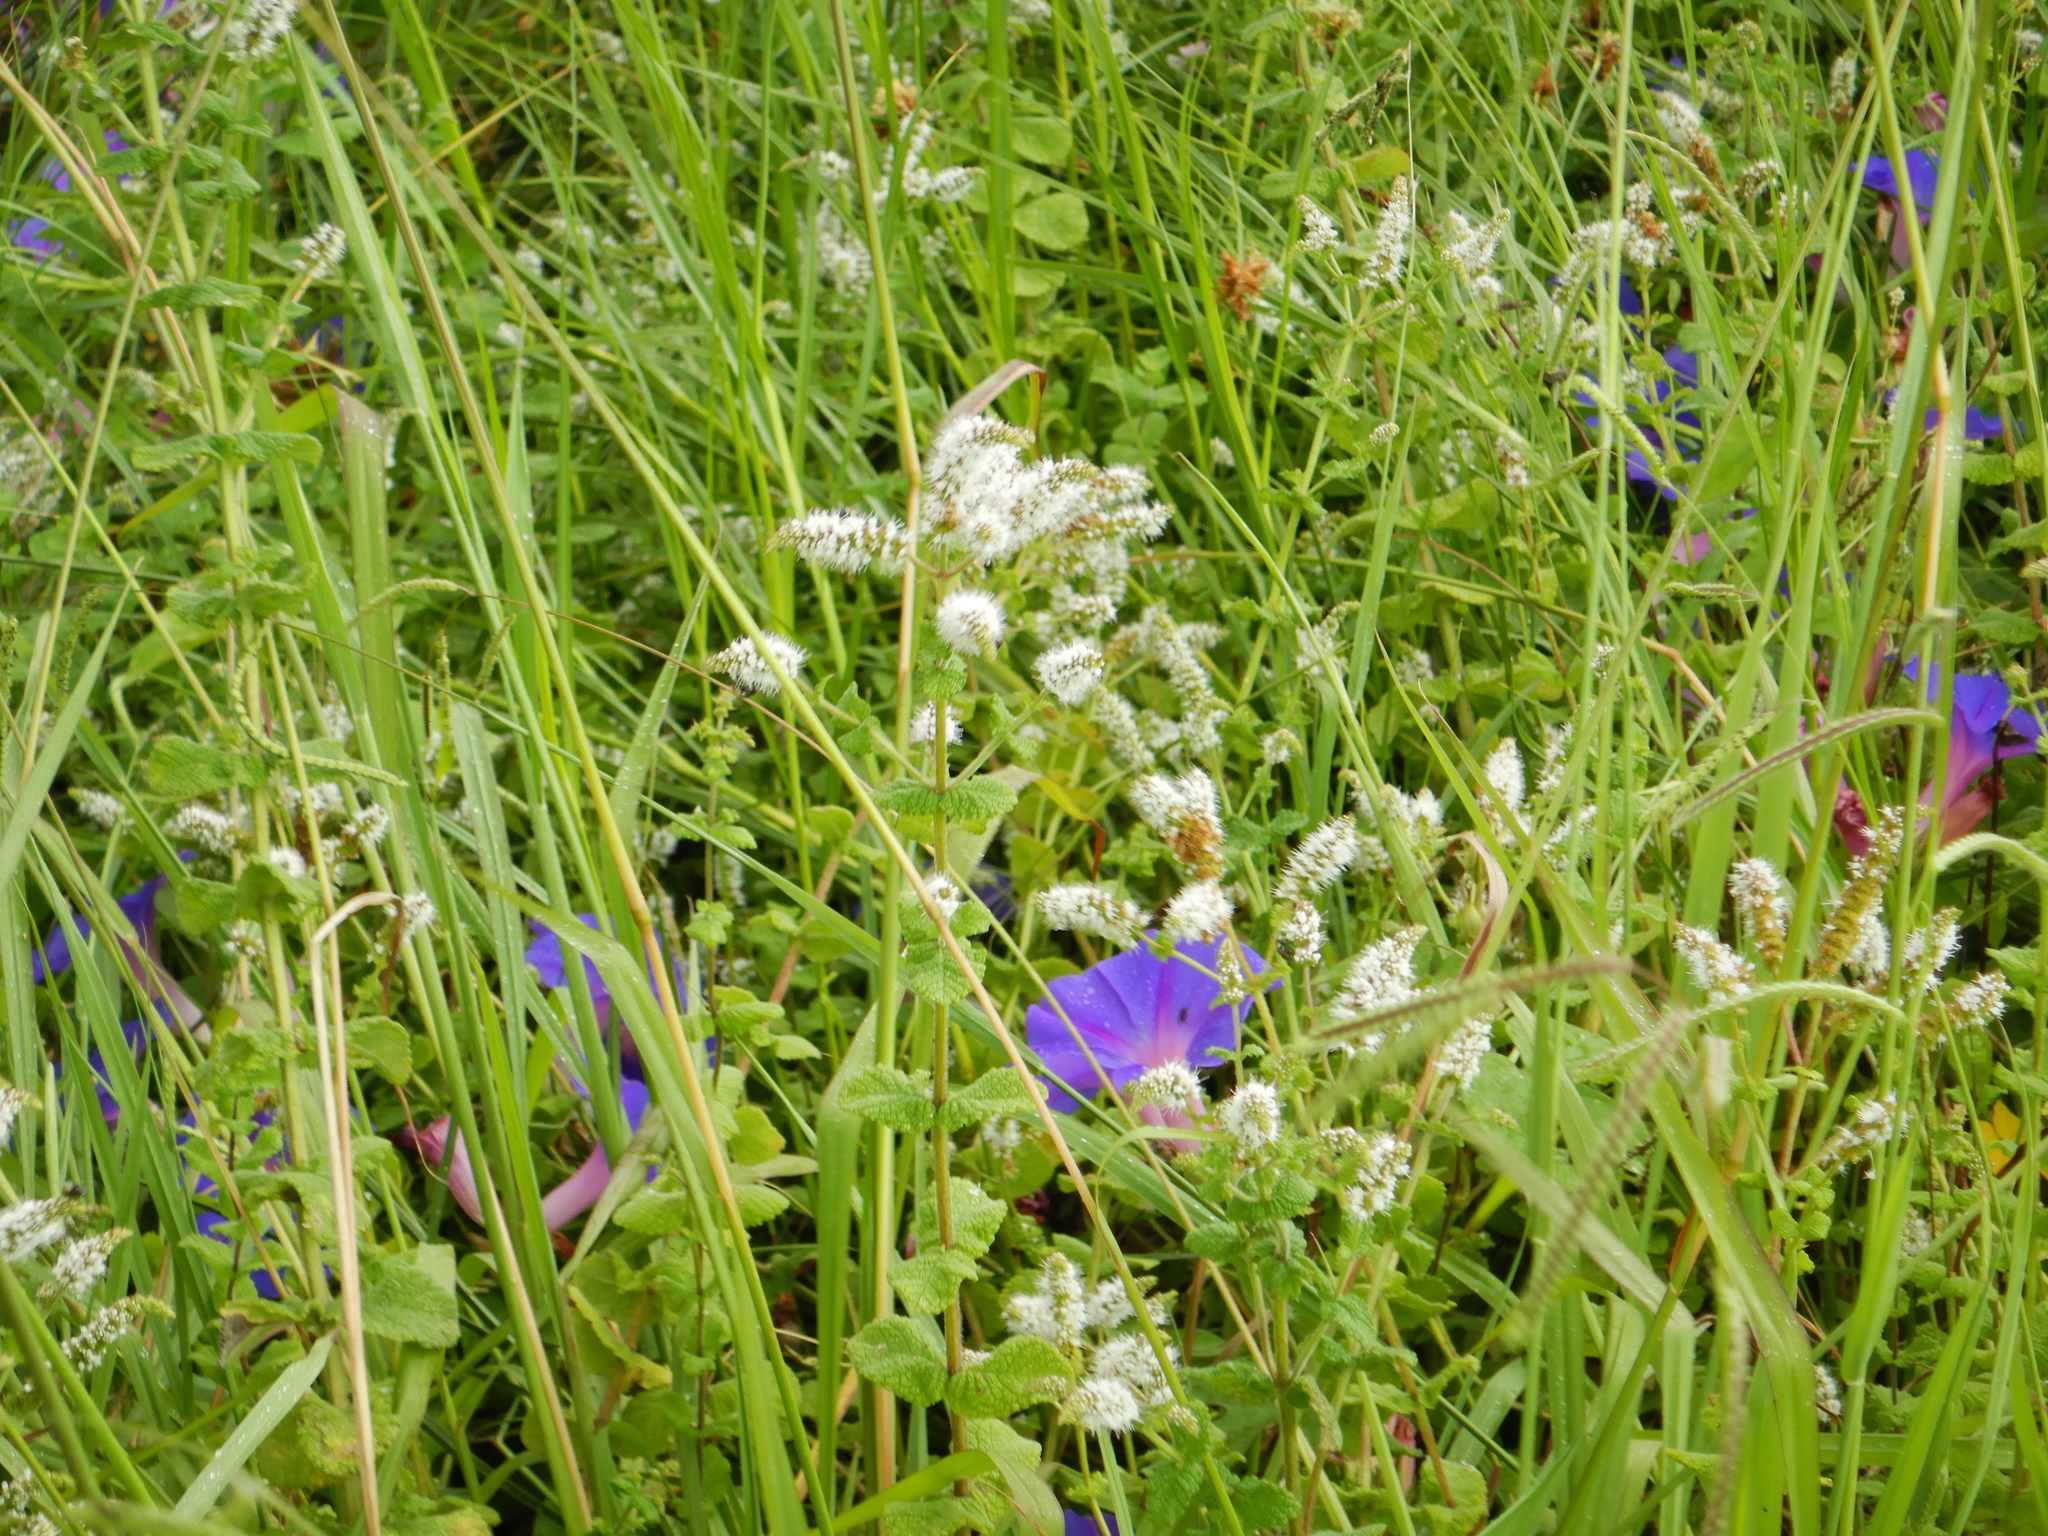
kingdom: Plantae
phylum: Tracheophyta
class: Magnoliopsida
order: Lamiales
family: Lamiaceae
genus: Mentha
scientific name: Mentha suaveolens
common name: Apple mint
